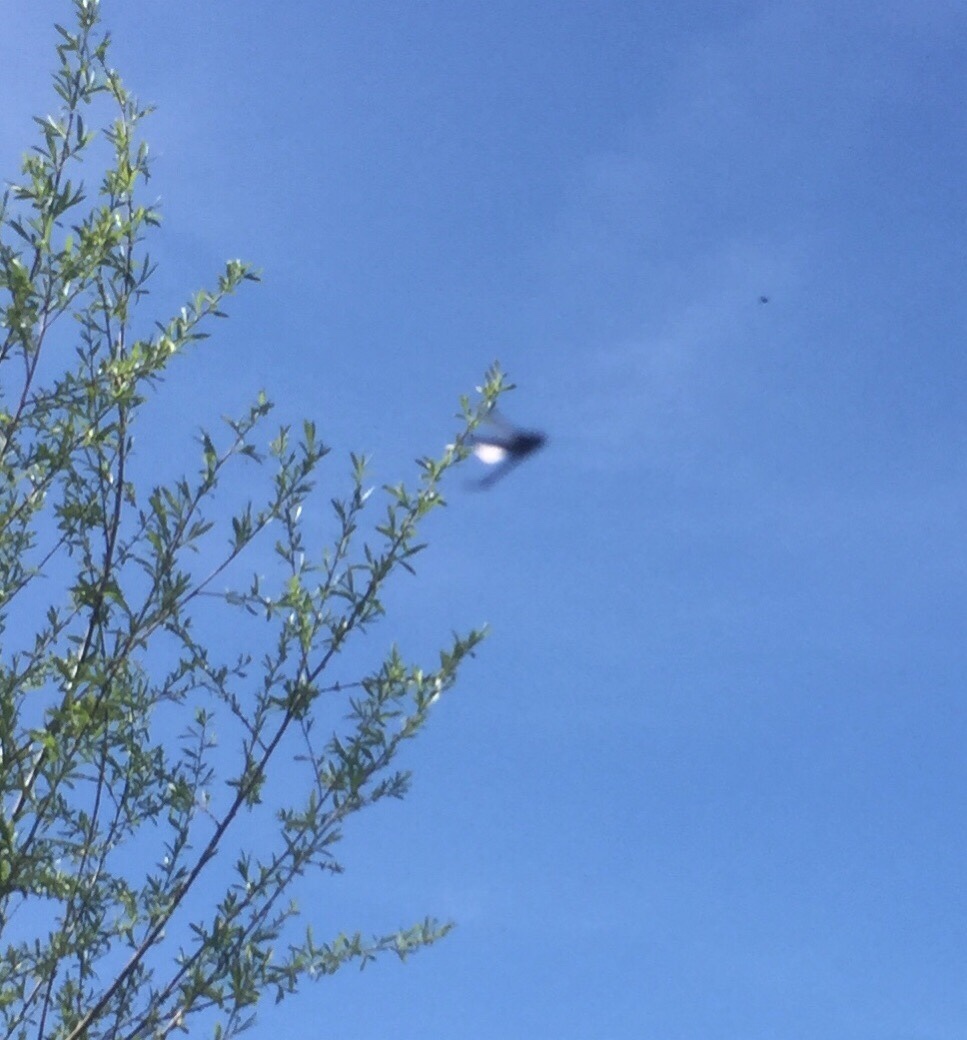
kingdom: Animalia
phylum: Arthropoda
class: Insecta
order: Diptera
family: Bibionidae
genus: Bibio
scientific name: Bibio marci
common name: St marks fly
